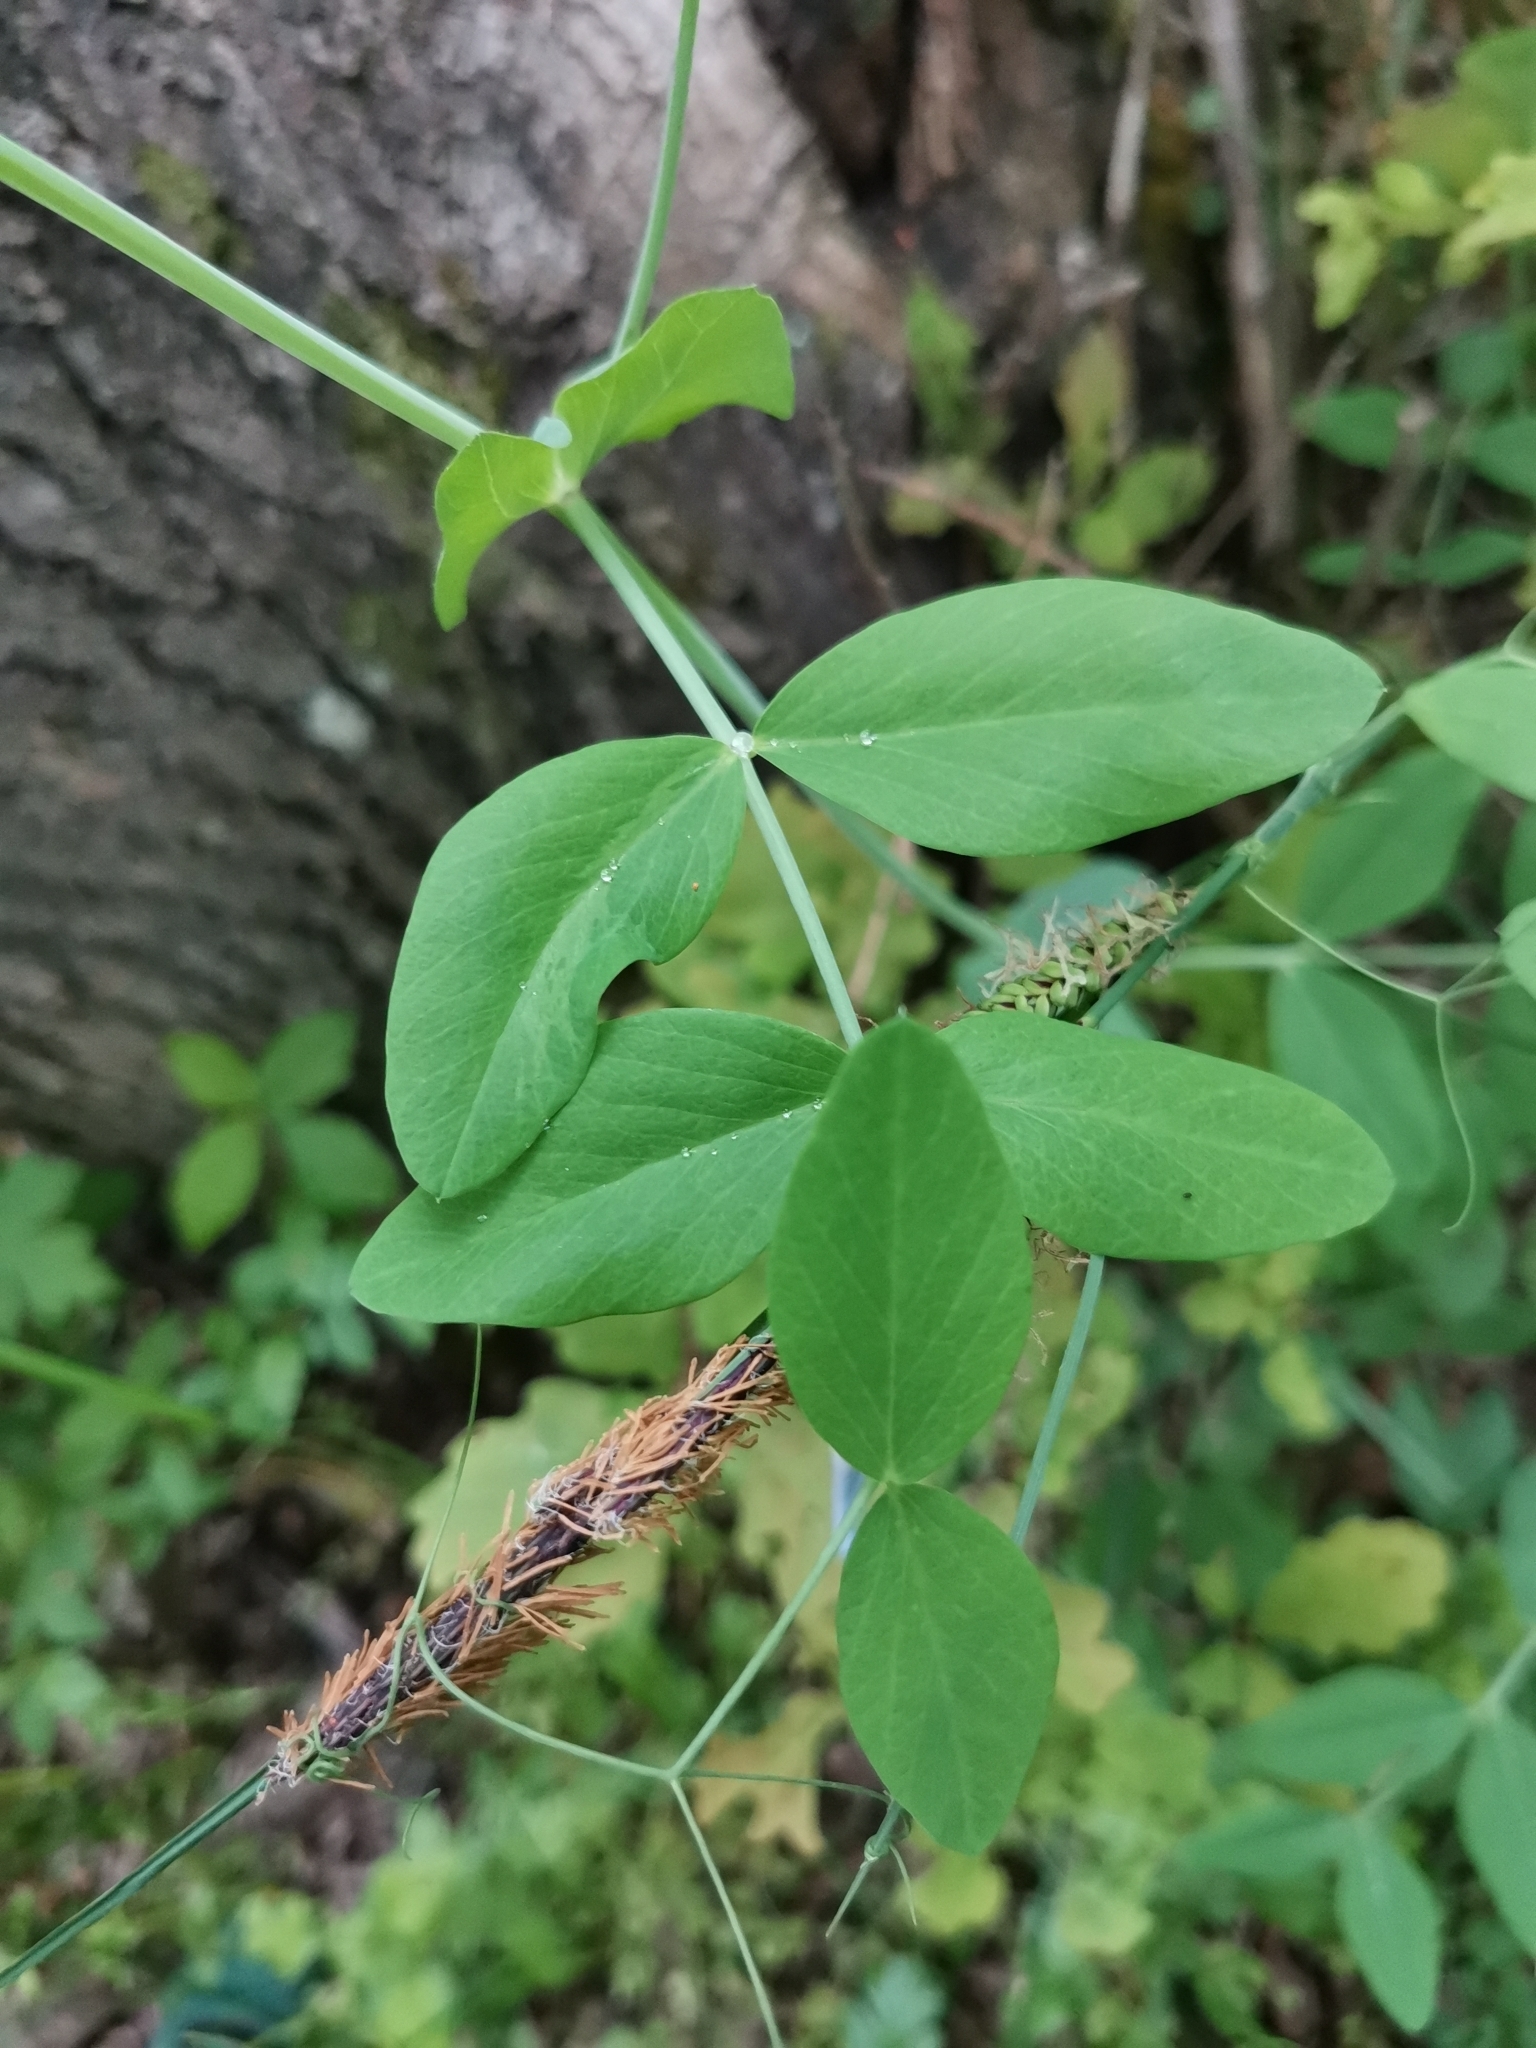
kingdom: Plantae
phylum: Tracheophyta
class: Magnoliopsida
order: Fabales
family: Fabaceae
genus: Lathyrus
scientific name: Lathyrus oleraceus
